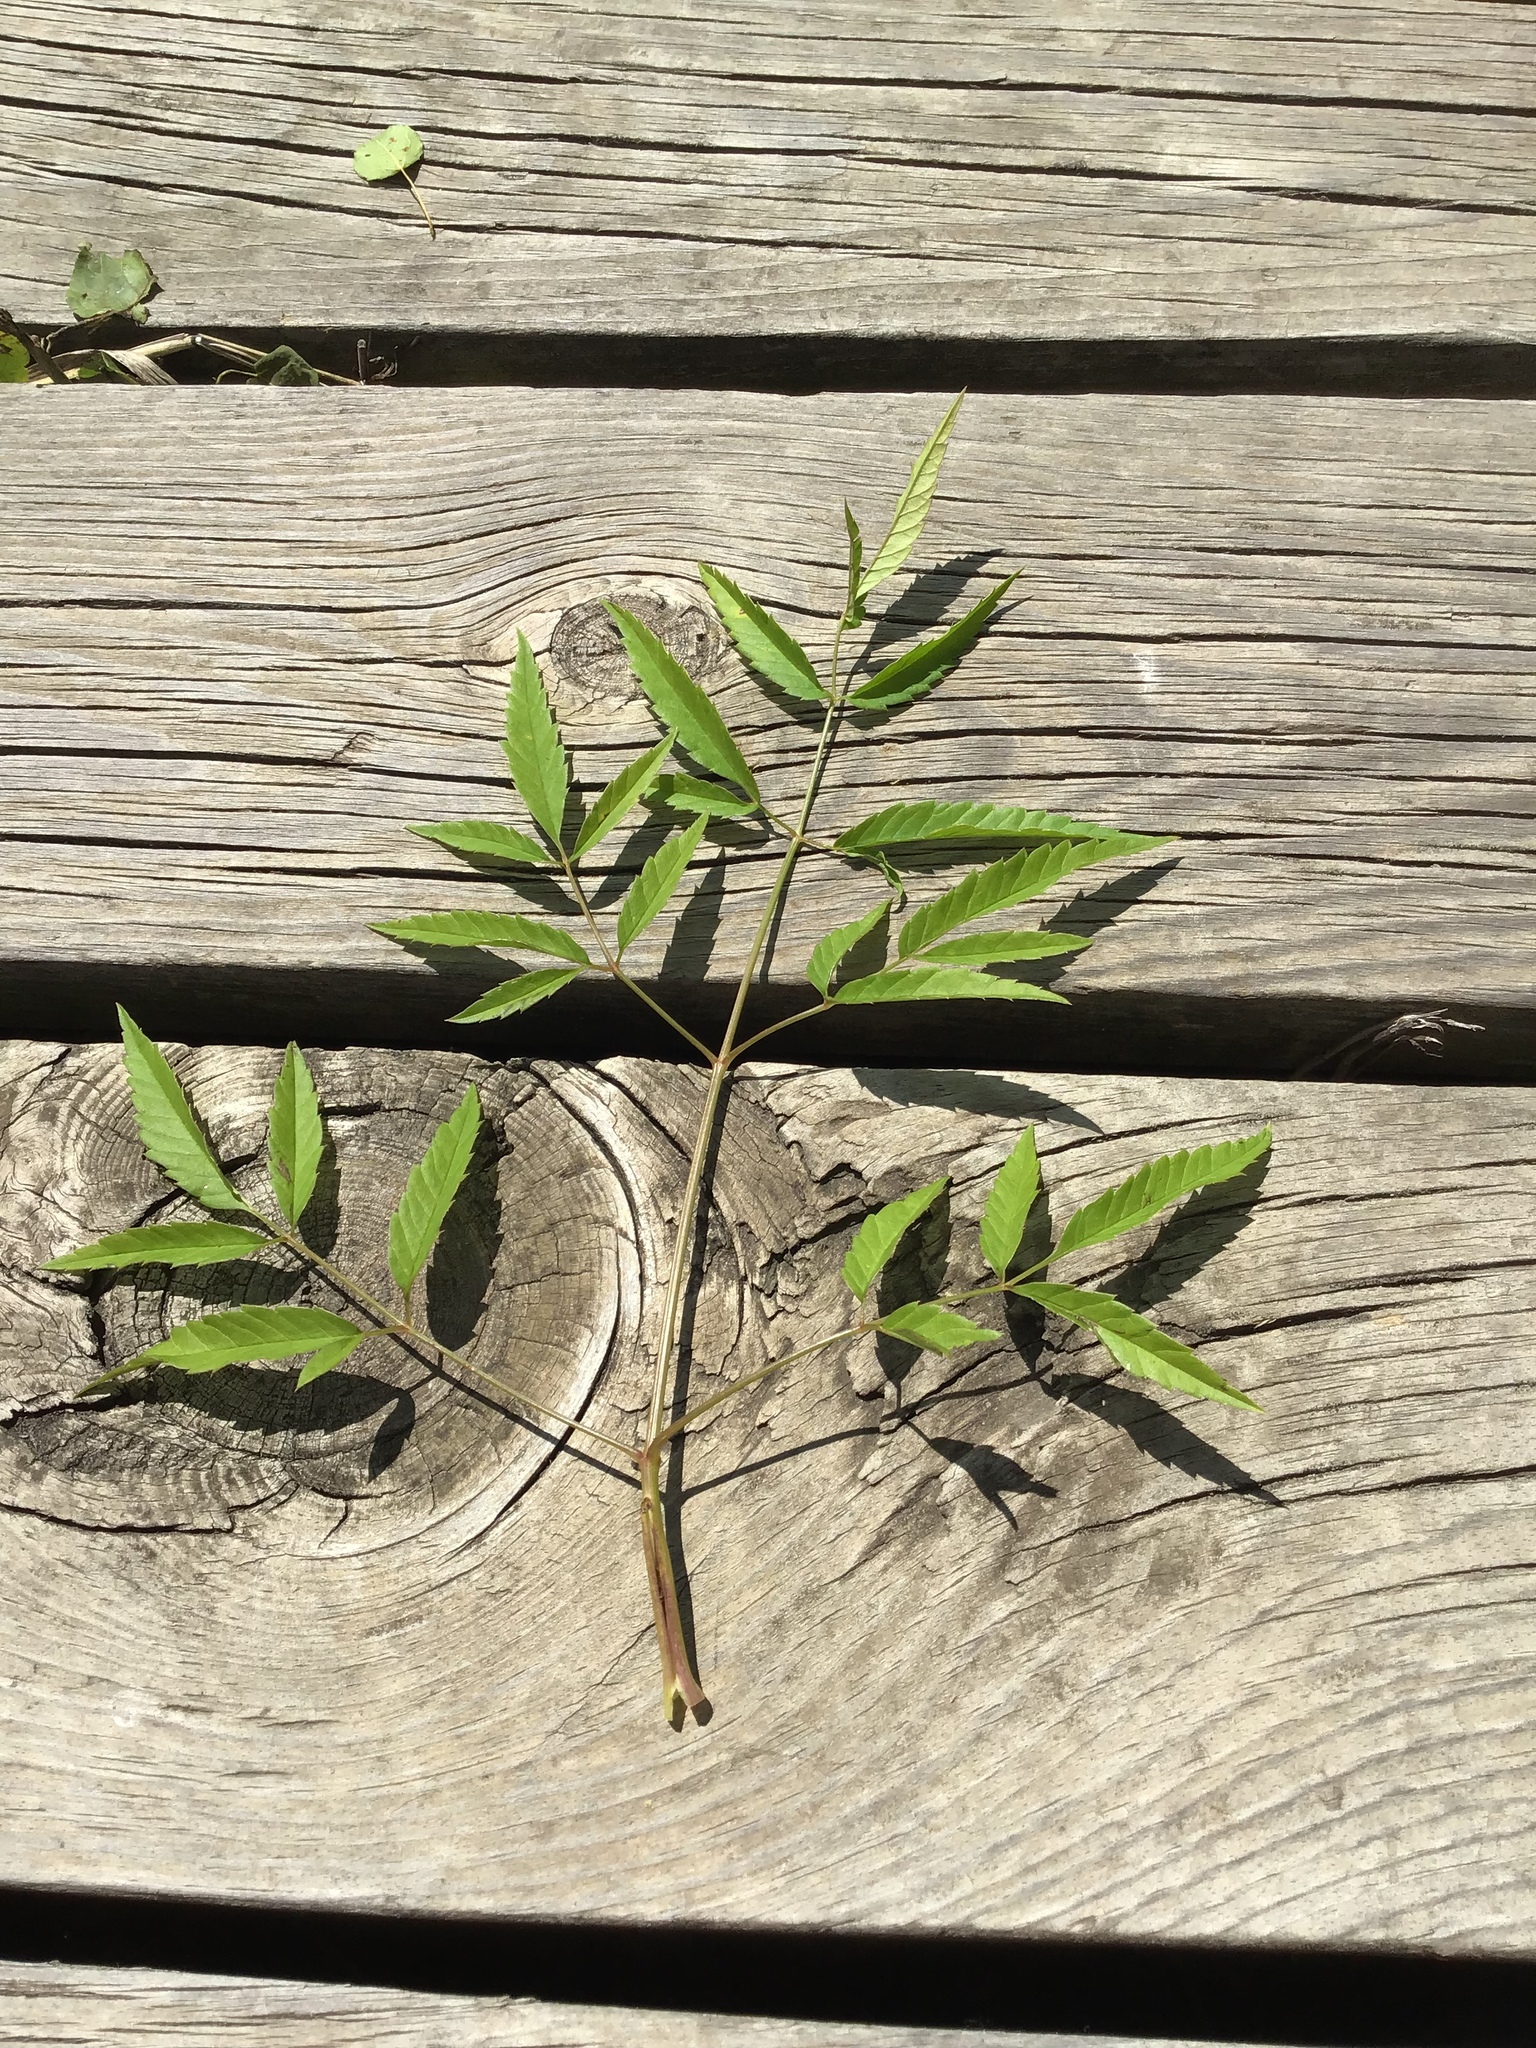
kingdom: Plantae
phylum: Tracheophyta
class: Magnoliopsida
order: Apiales
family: Apiaceae
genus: Cicuta
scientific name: Cicuta maculata
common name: Spotted cowbane
